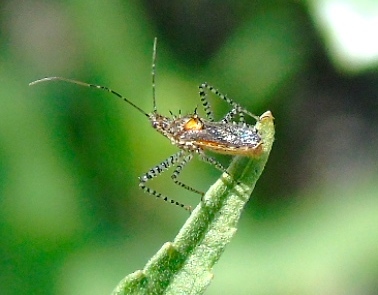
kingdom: Animalia
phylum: Arthropoda
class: Insecta
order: Hemiptera
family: Reduviidae
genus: Pselliopus
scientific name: Pselliopus punctipes
